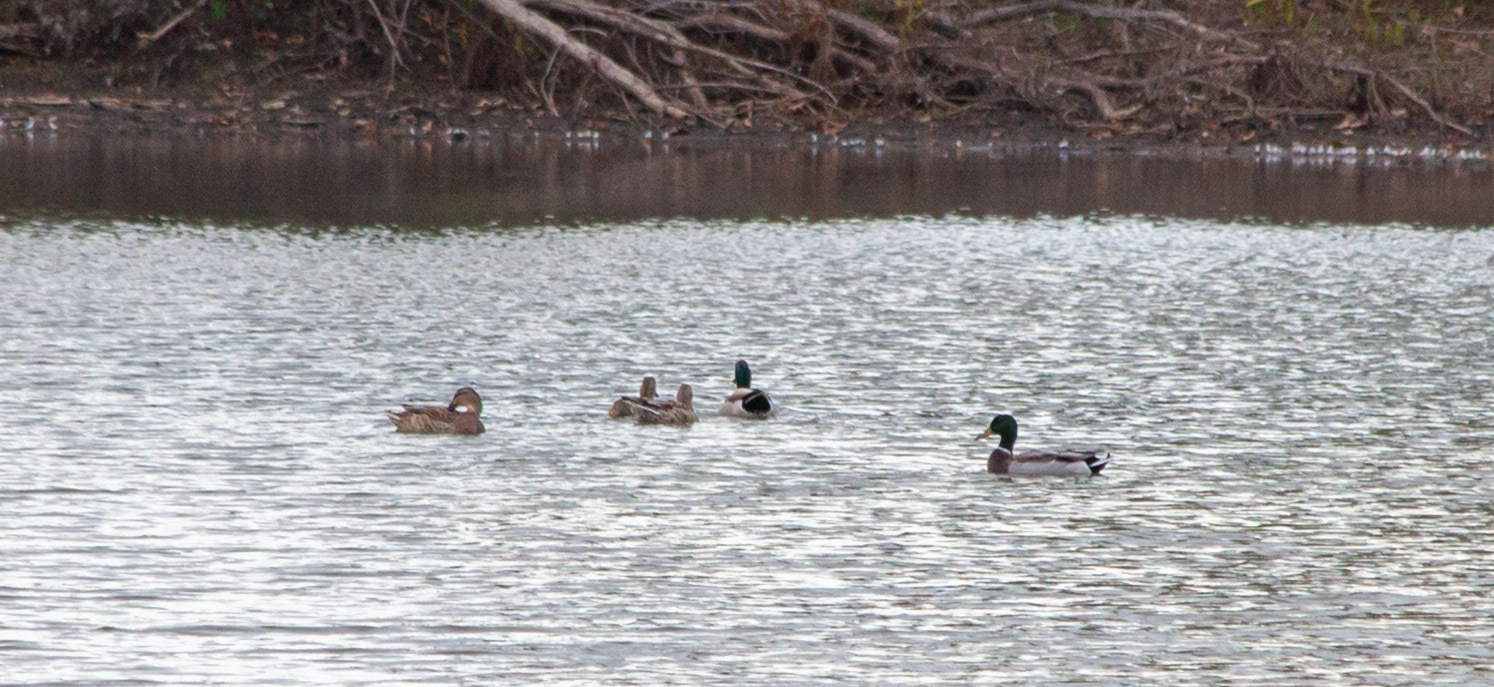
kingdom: Animalia
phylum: Chordata
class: Aves
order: Anseriformes
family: Anatidae
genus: Anas
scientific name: Anas platyrhynchos
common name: Mallard
